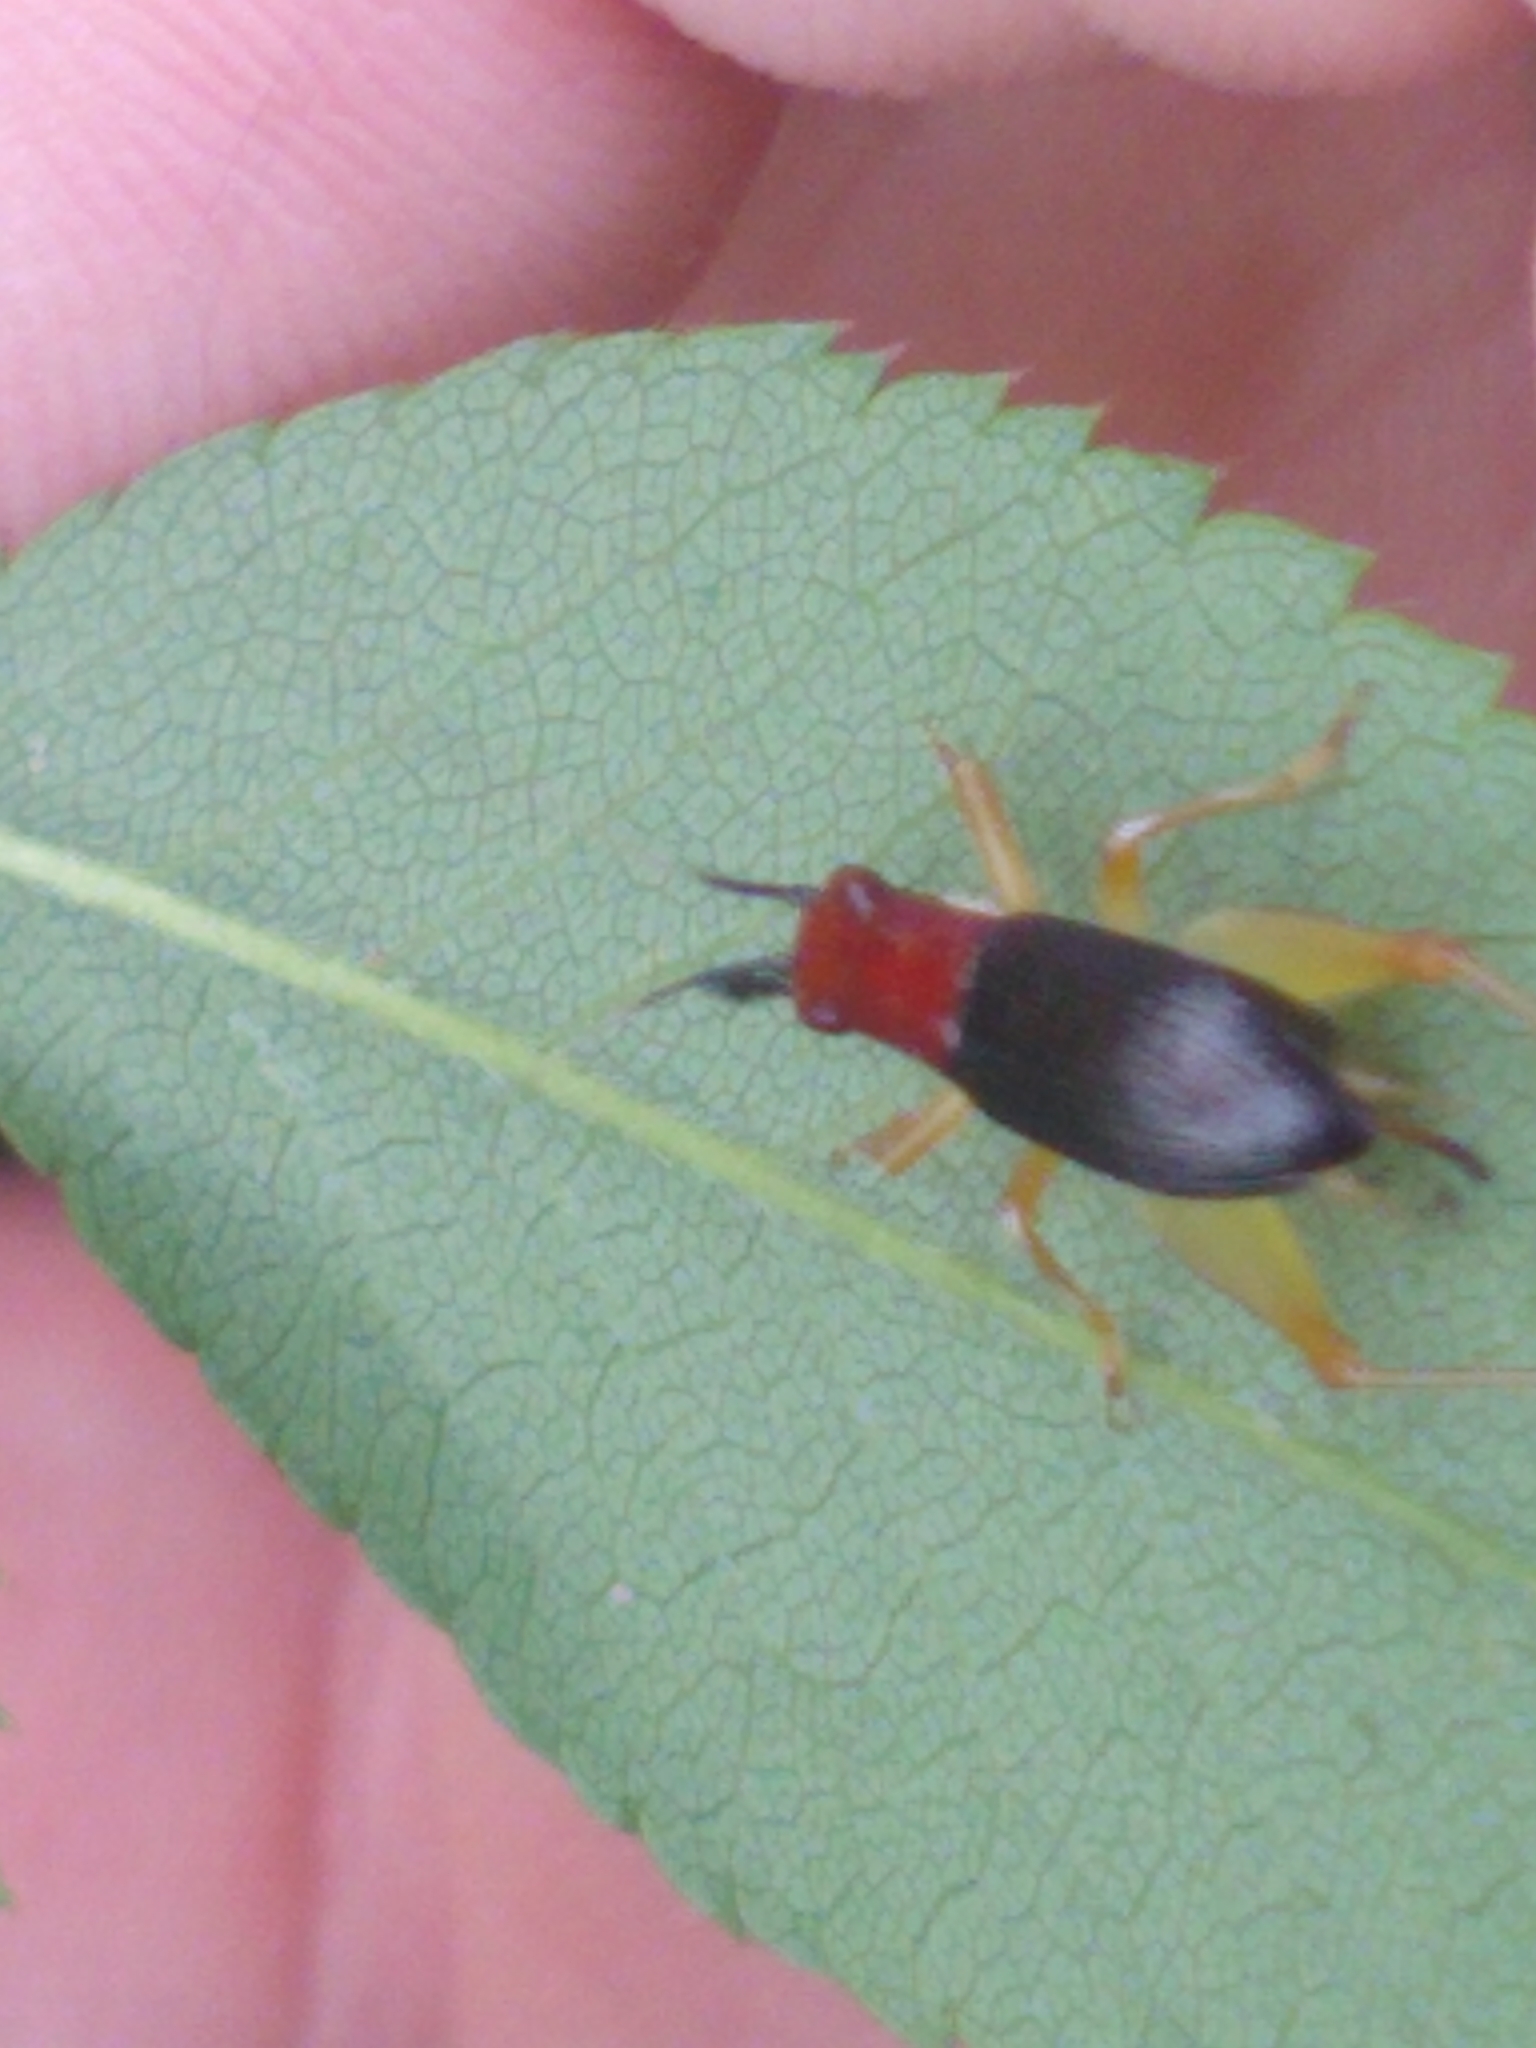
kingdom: Animalia
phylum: Arthropoda
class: Insecta
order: Orthoptera
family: Trigonidiidae
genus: Phyllopalpus
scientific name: Phyllopalpus pulchellus
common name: Handsome trig
